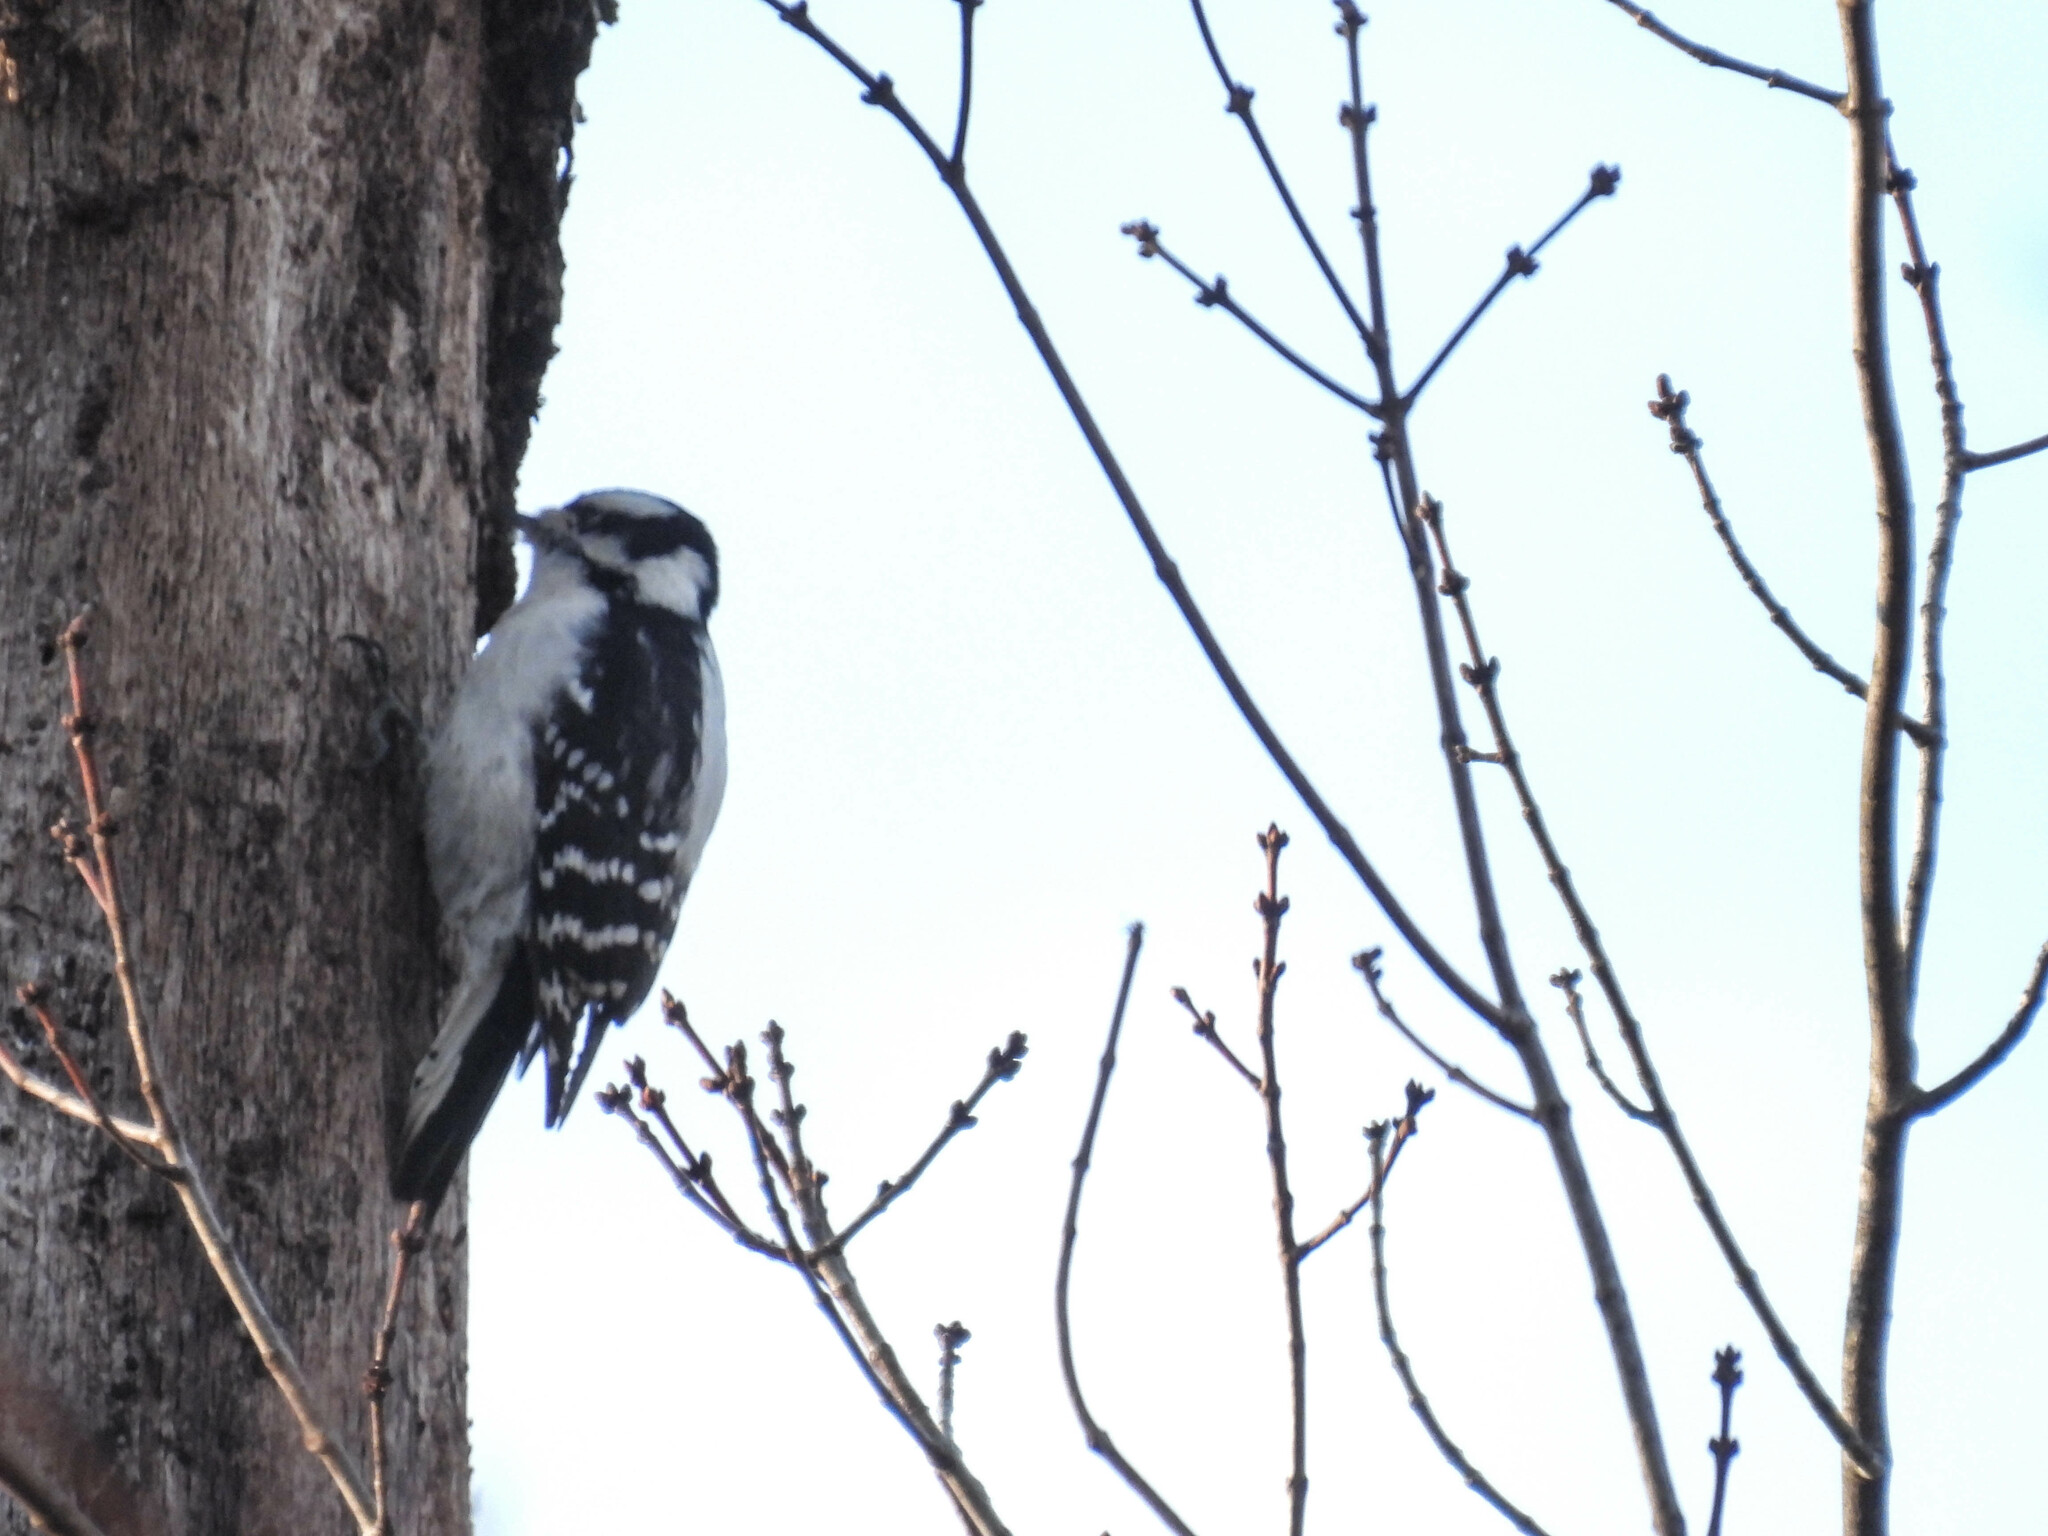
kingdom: Animalia
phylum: Chordata
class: Aves
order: Piciformes
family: Picidae
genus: Dryobates
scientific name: Dryobates pubescens
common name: Downy woodpecker
